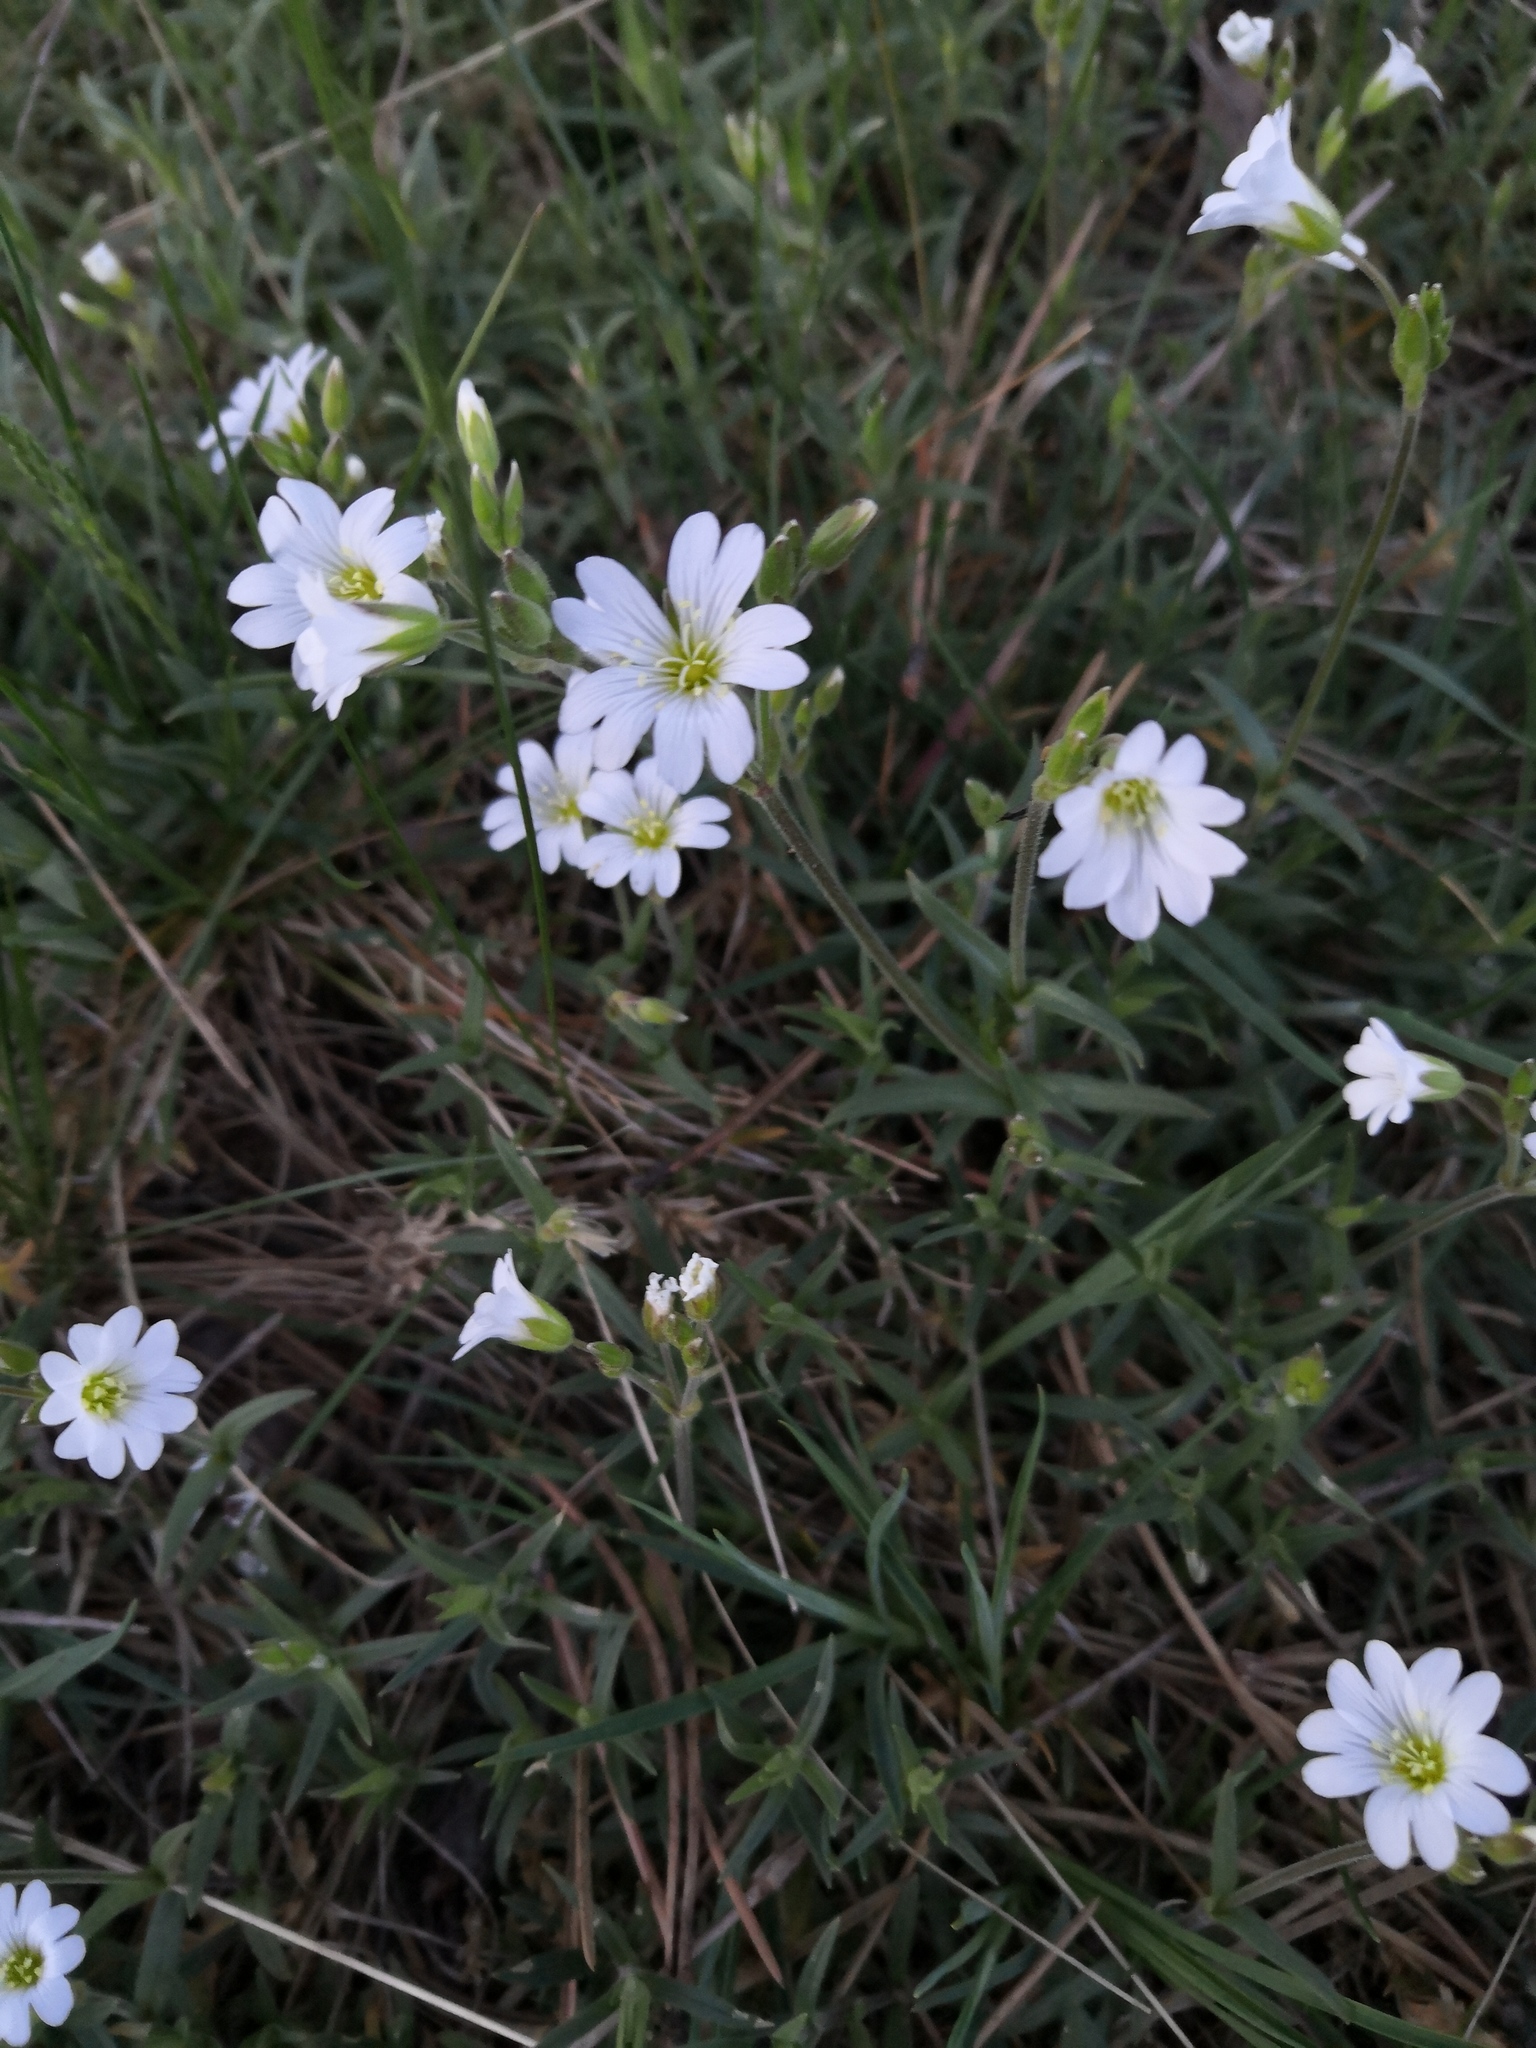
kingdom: Plantae
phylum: Tracheophyta
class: Magnoliopsida
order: Caryophyllales
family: Caryophyllaceae
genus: Cerastium
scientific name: Cerastium arvense
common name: Field mouse-ear
